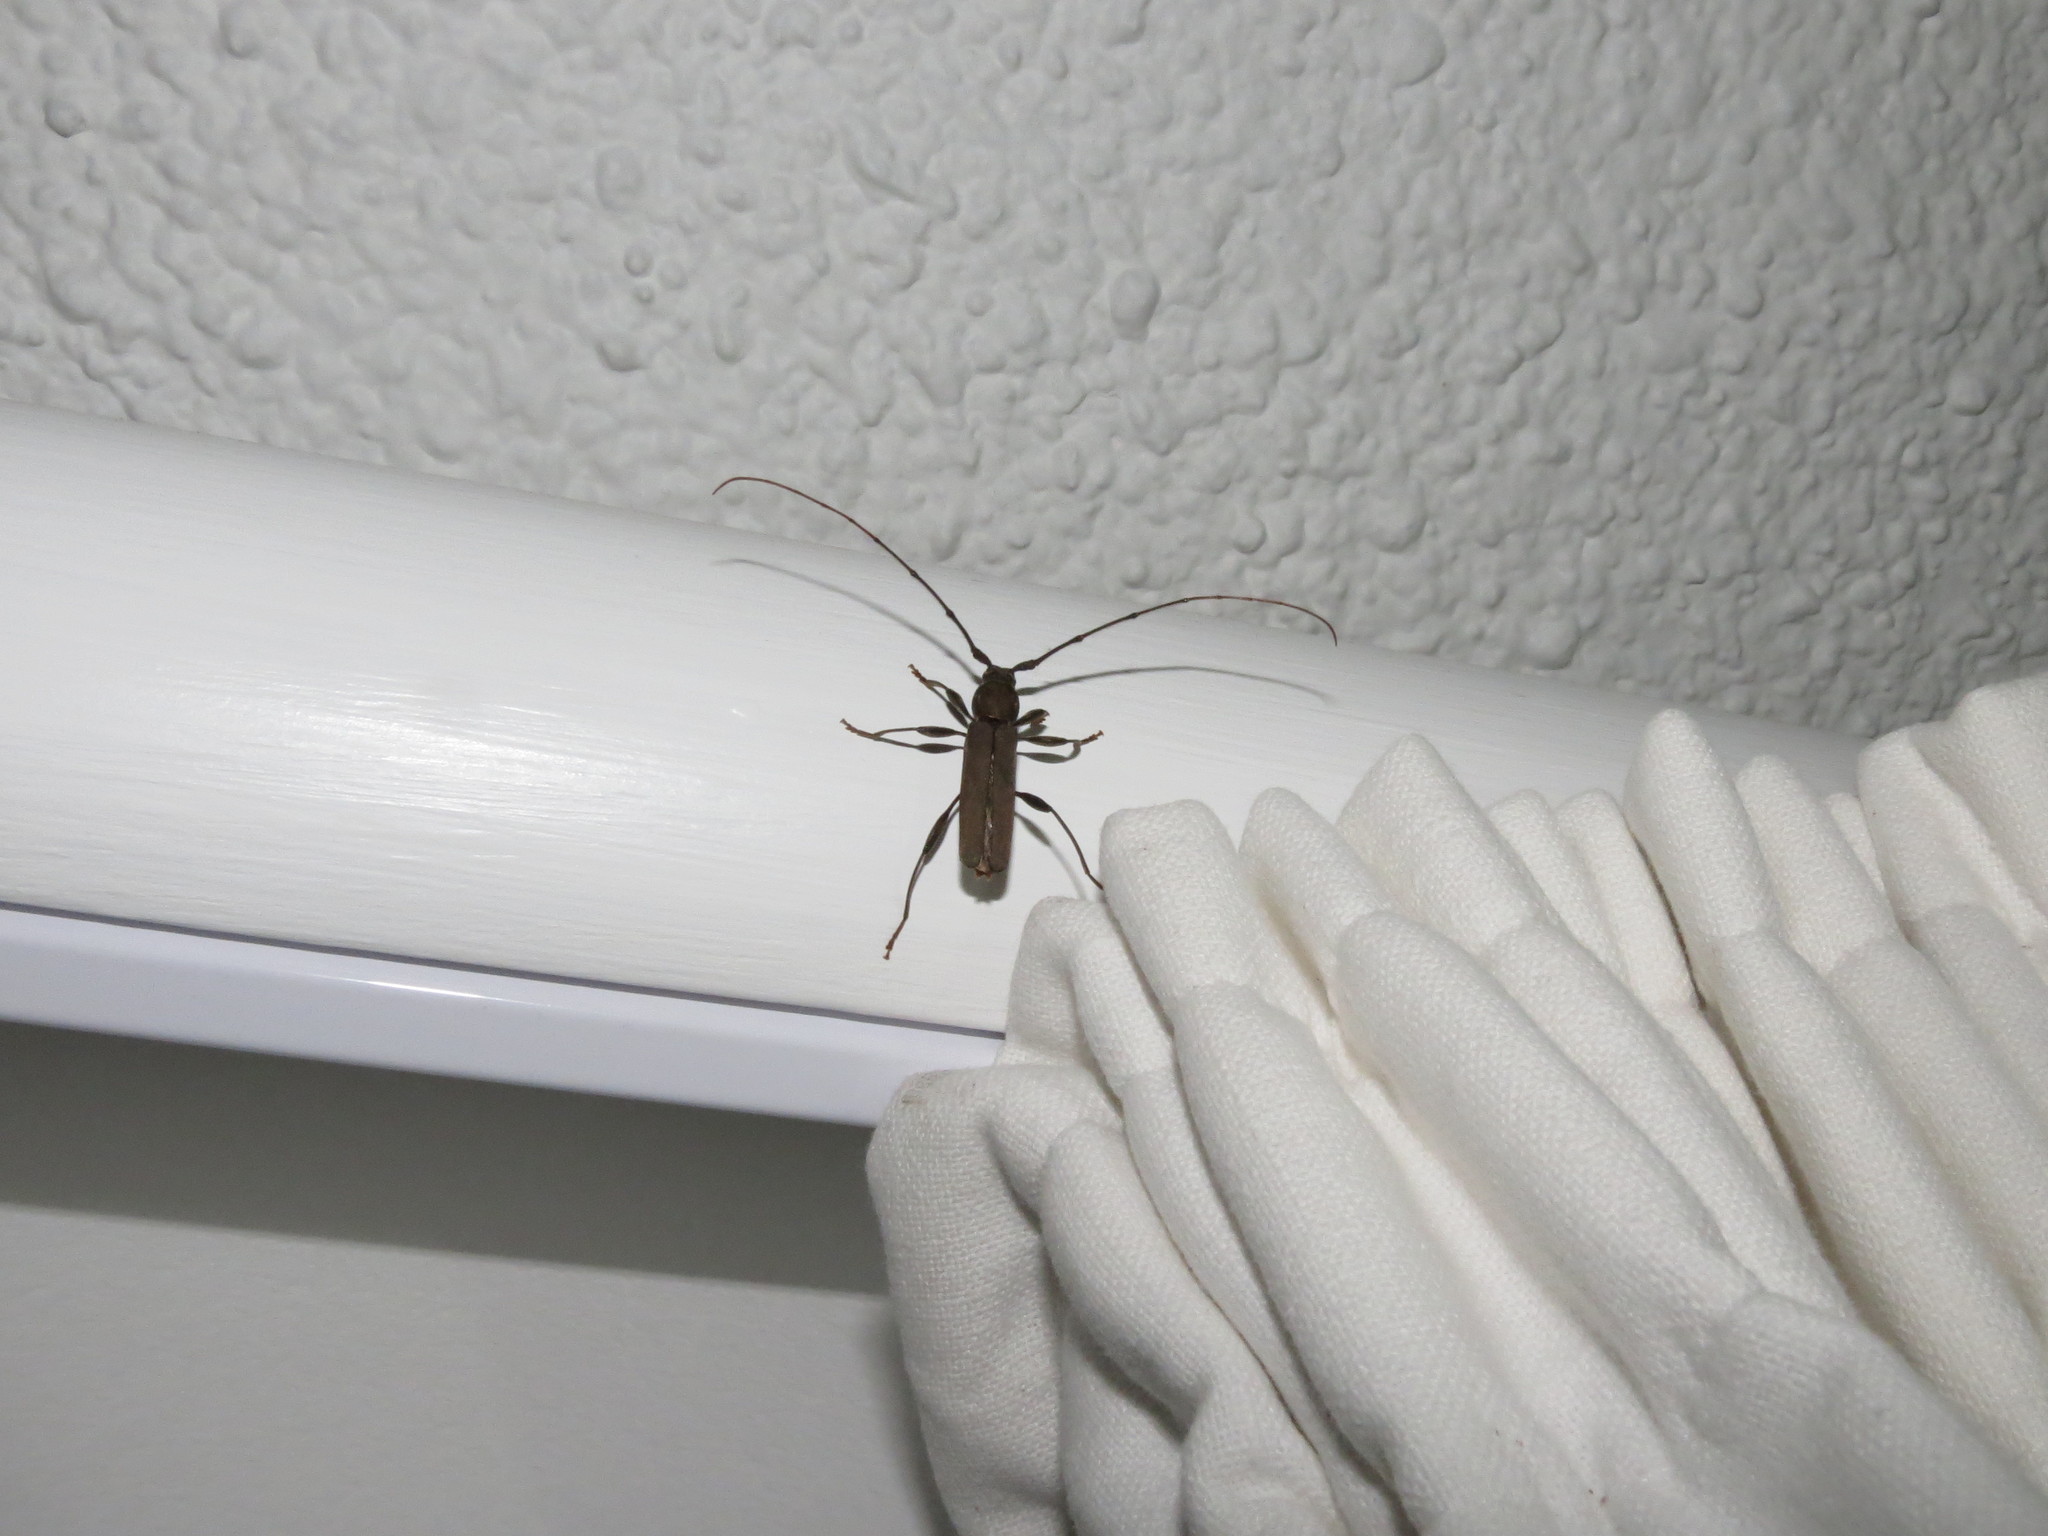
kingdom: Animalia
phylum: Arthropoda
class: Insecta
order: Coleoptera
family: Cerambycidae
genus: Xystrocera
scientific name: Xystrocera erosa
